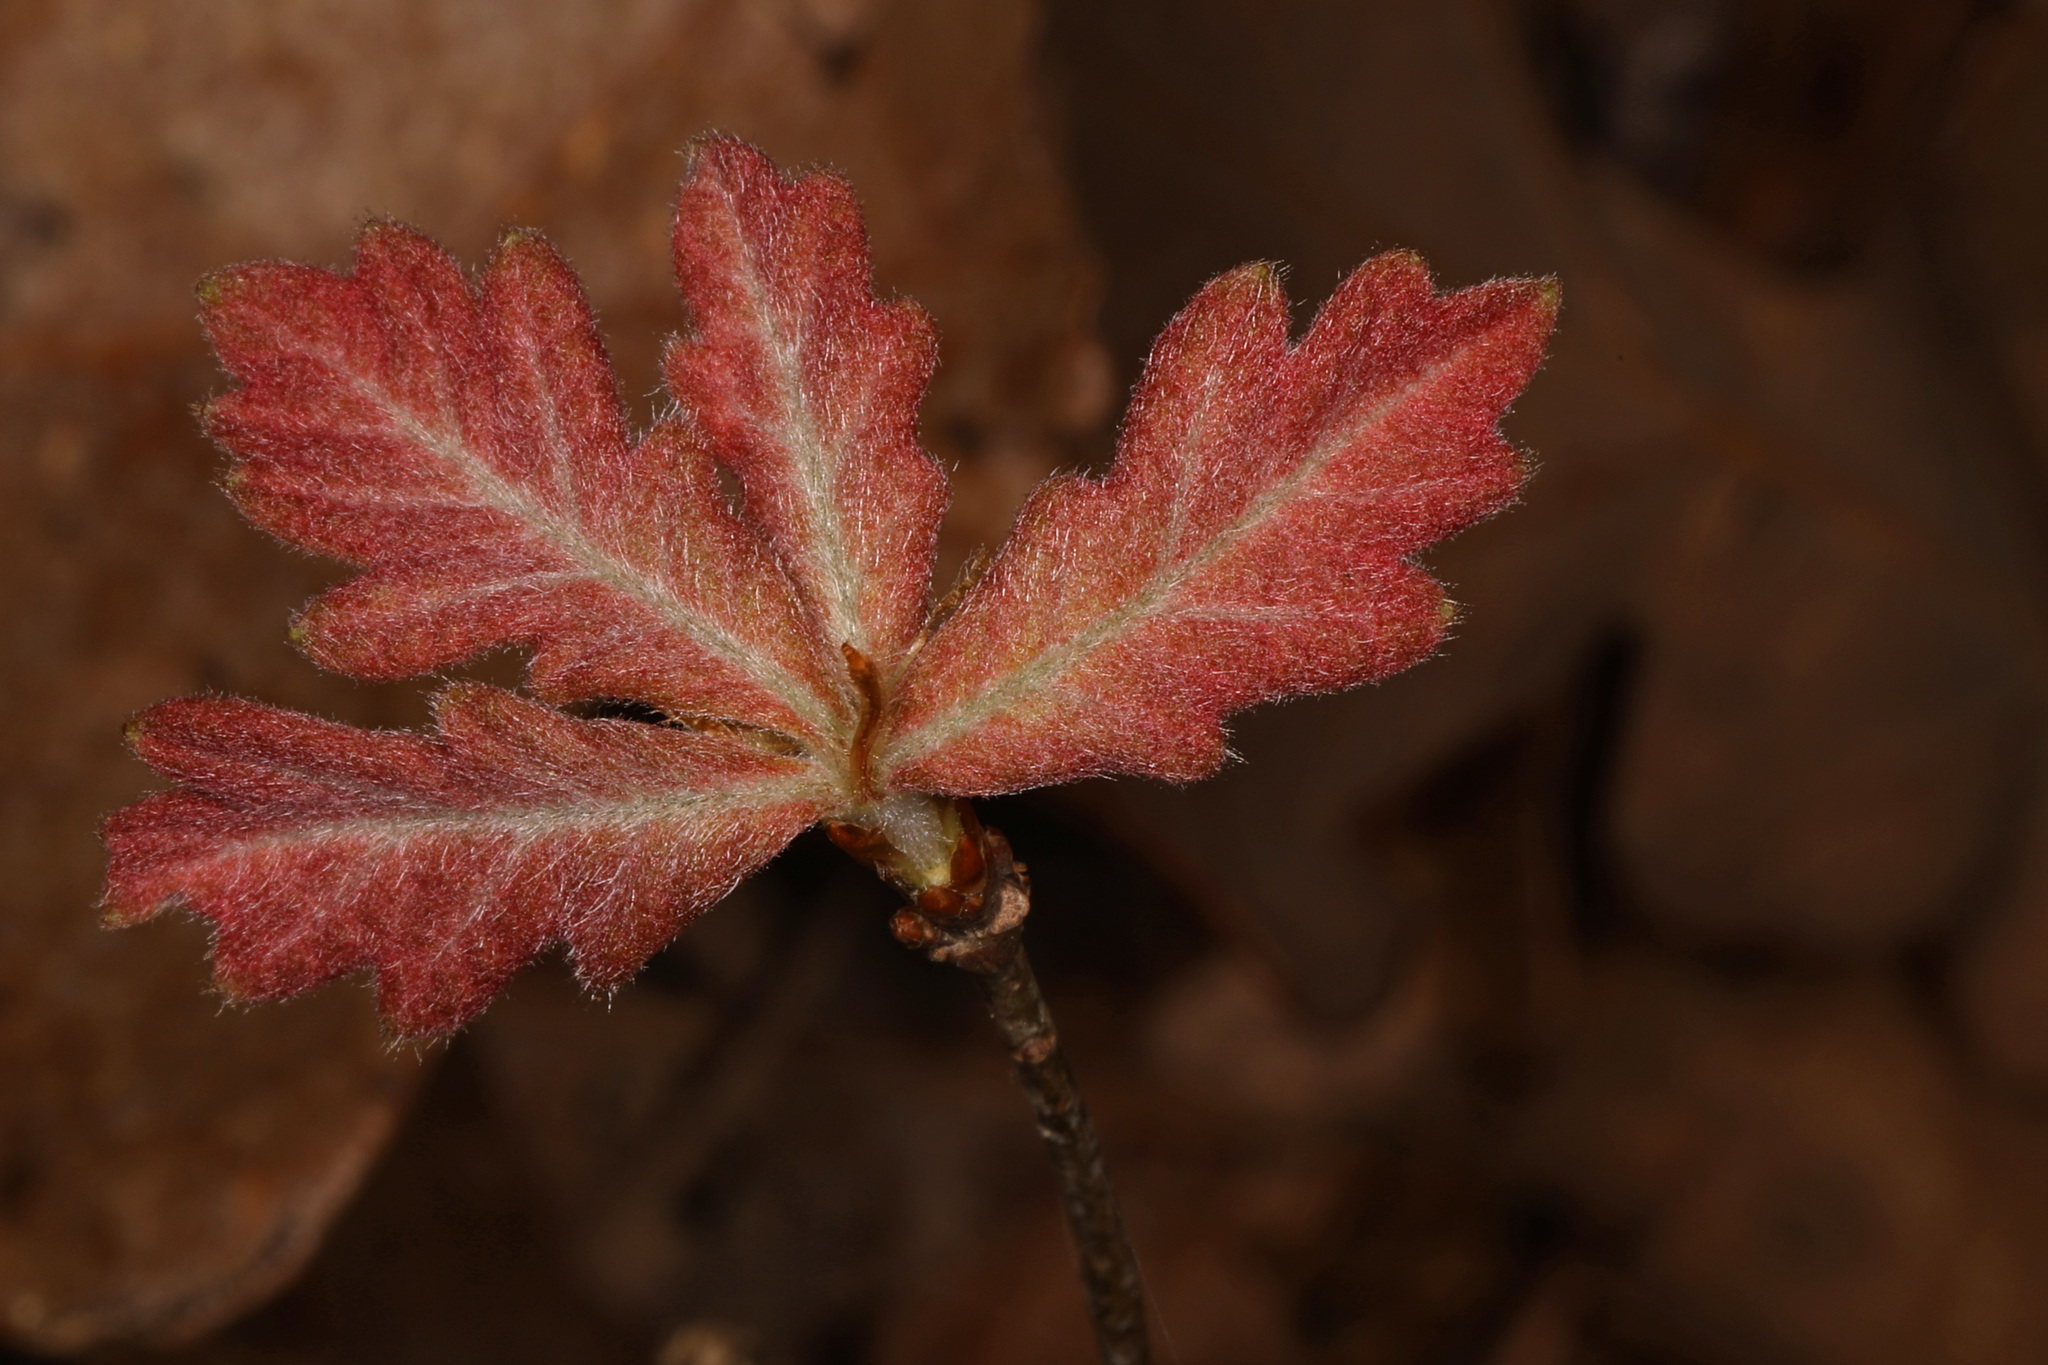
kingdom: Plantae
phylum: Tracheophyta
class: Magnoliopsida
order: Fagales
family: Fagaceae
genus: Quercus
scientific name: Quercus alba
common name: White oak
